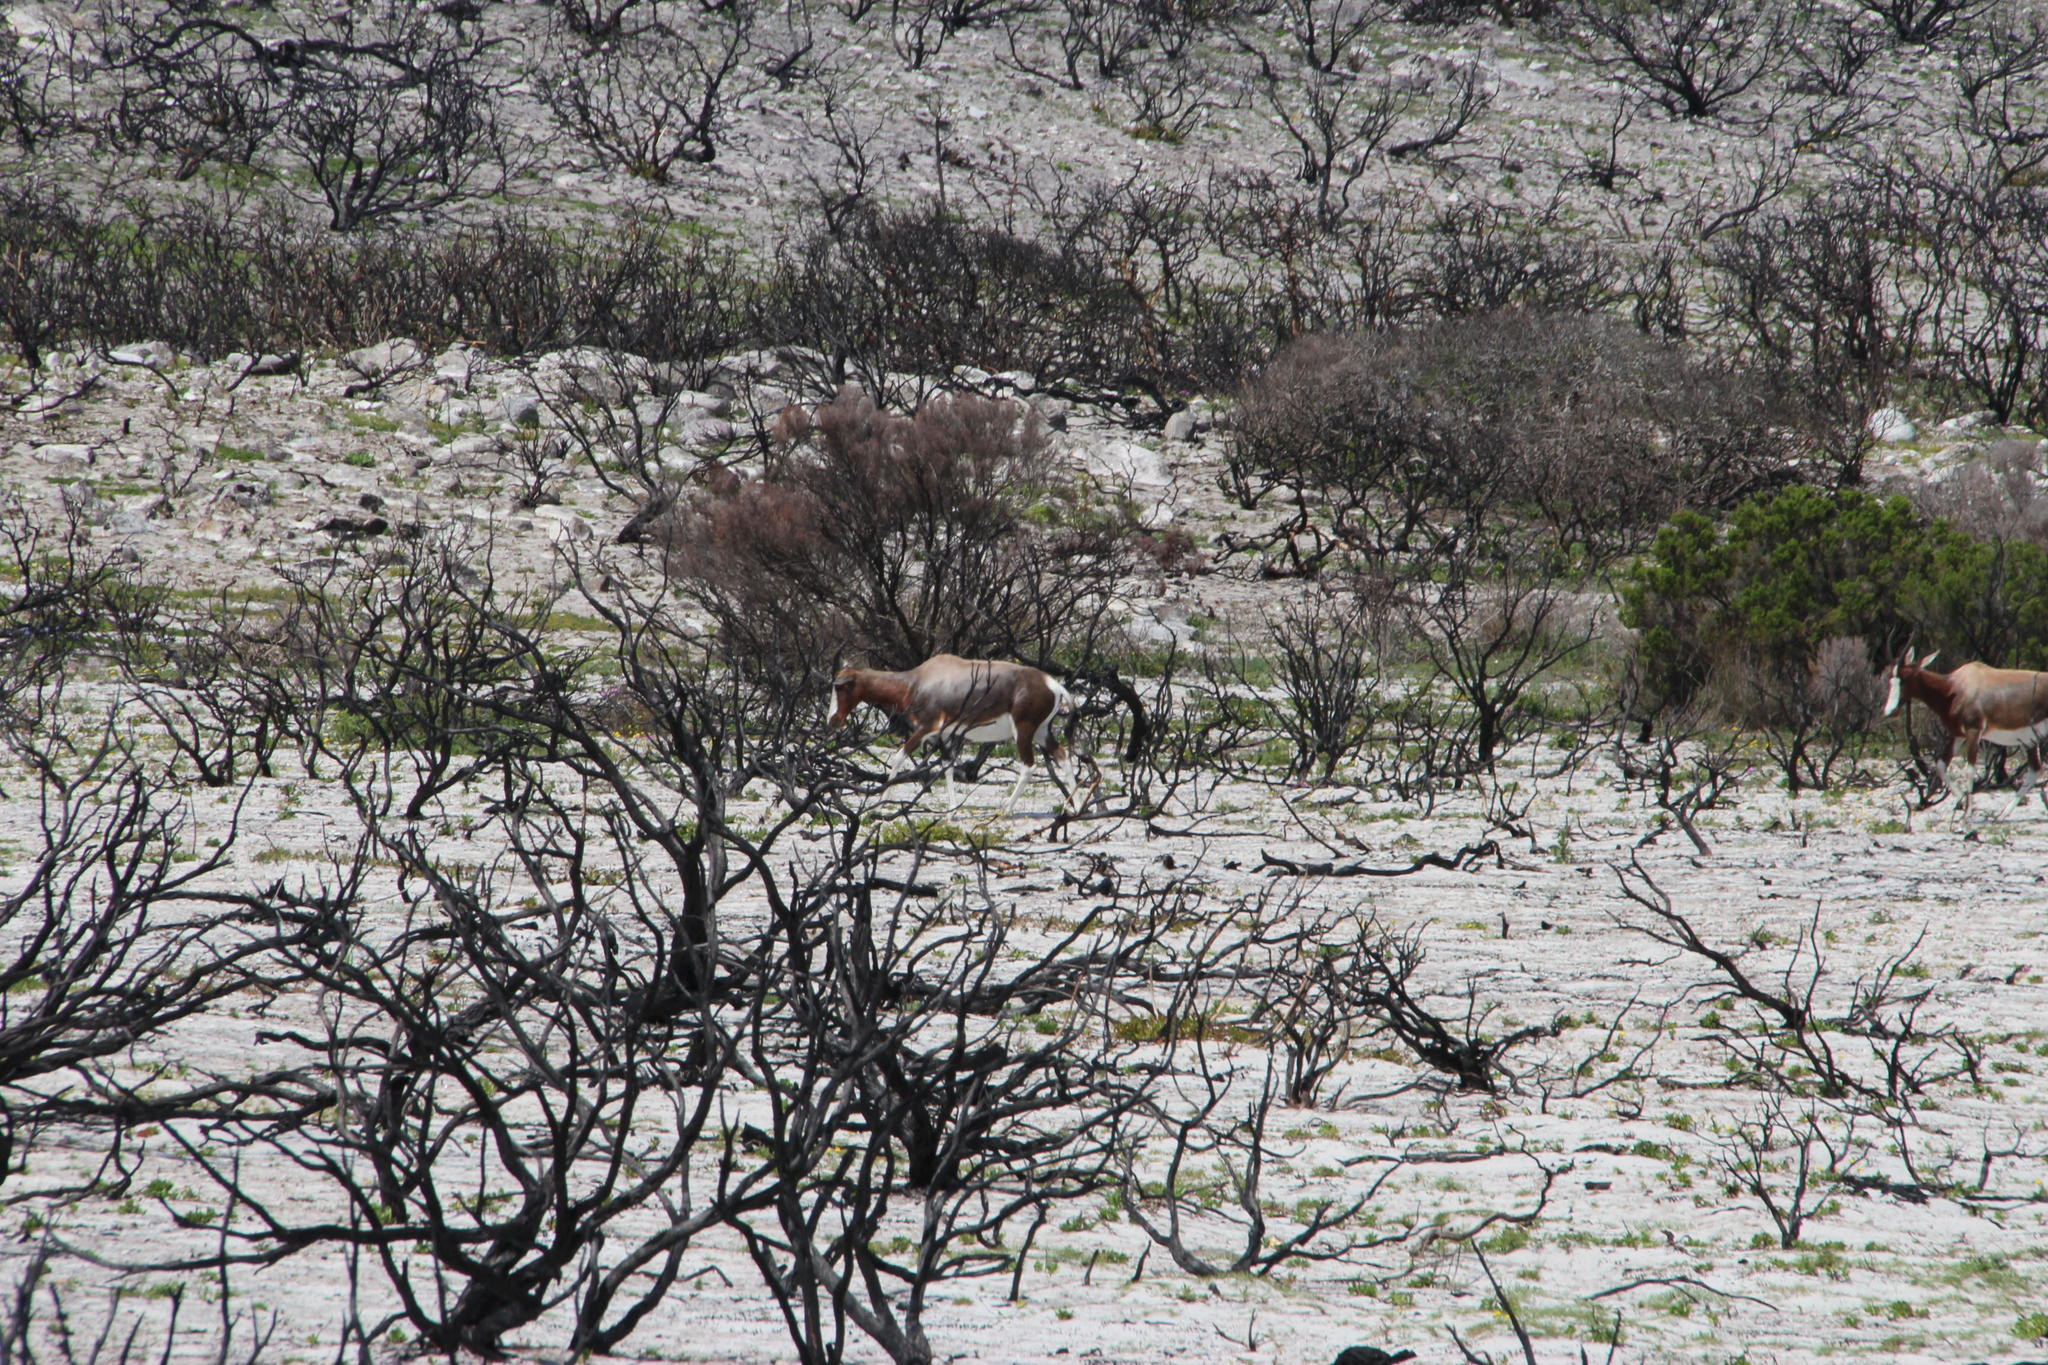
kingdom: Animalia
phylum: Chordata
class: Mammalia
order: Artiodactyla
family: Bovidae
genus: Damaliscus
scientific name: Damaliscus pygargus
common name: Bontebok
